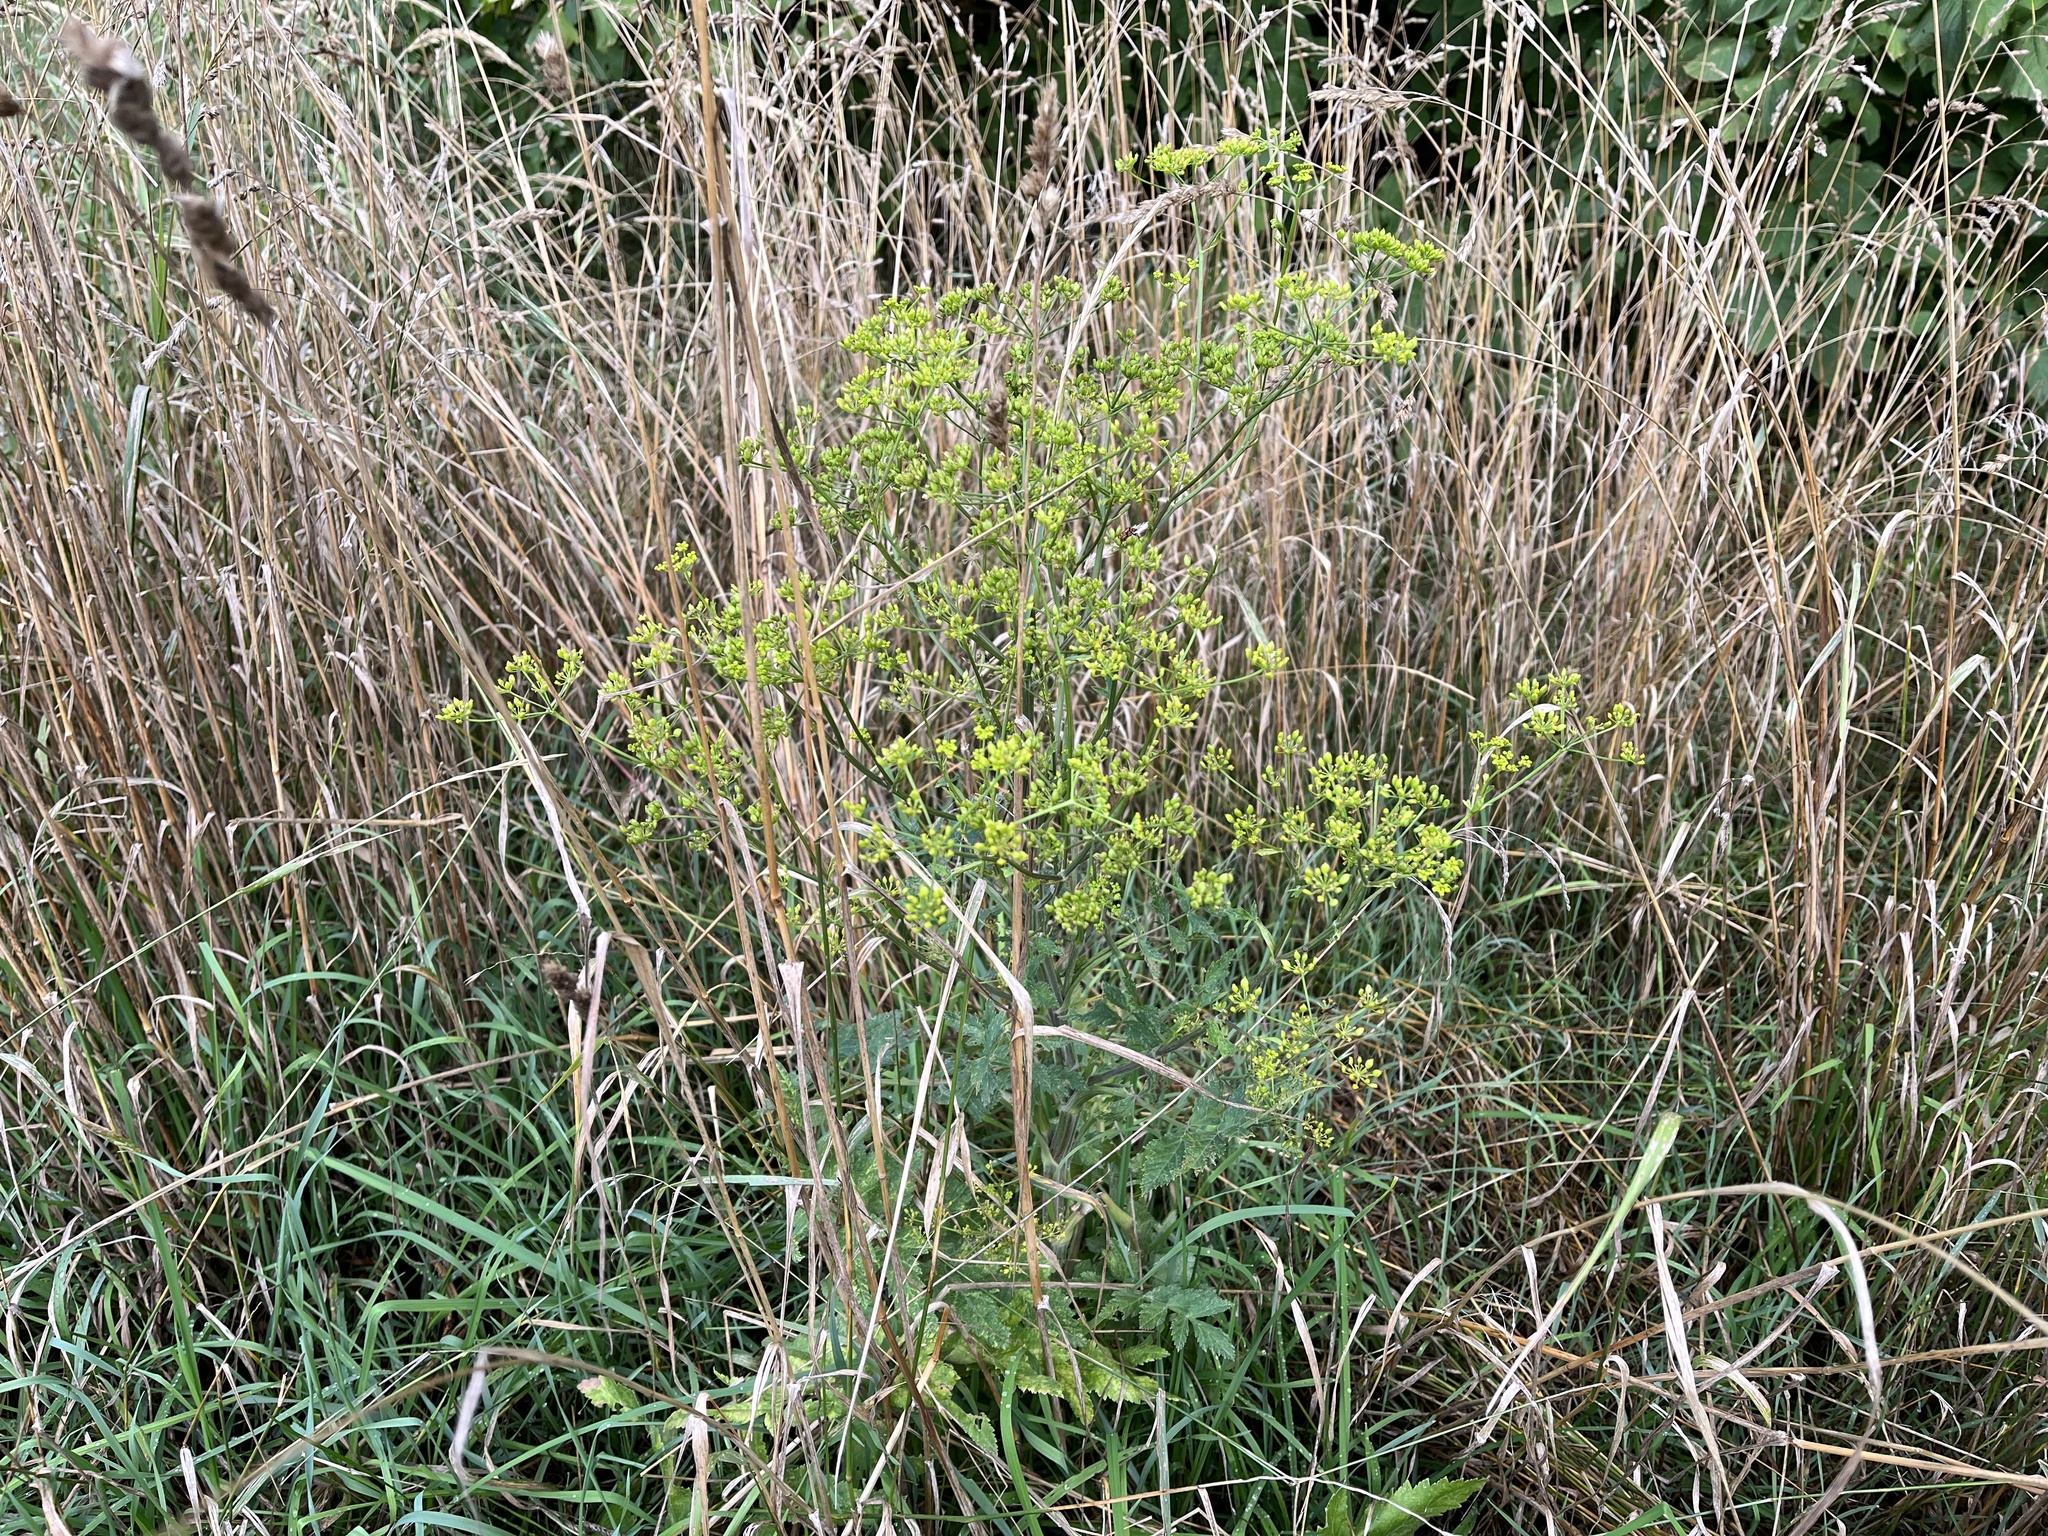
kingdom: Plantae
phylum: Tracheophyta
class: Magnoliopsida
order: Apiales
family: Apiaceae
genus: Pastinaca
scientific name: Pastinaca sativa
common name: Wild parsnip
